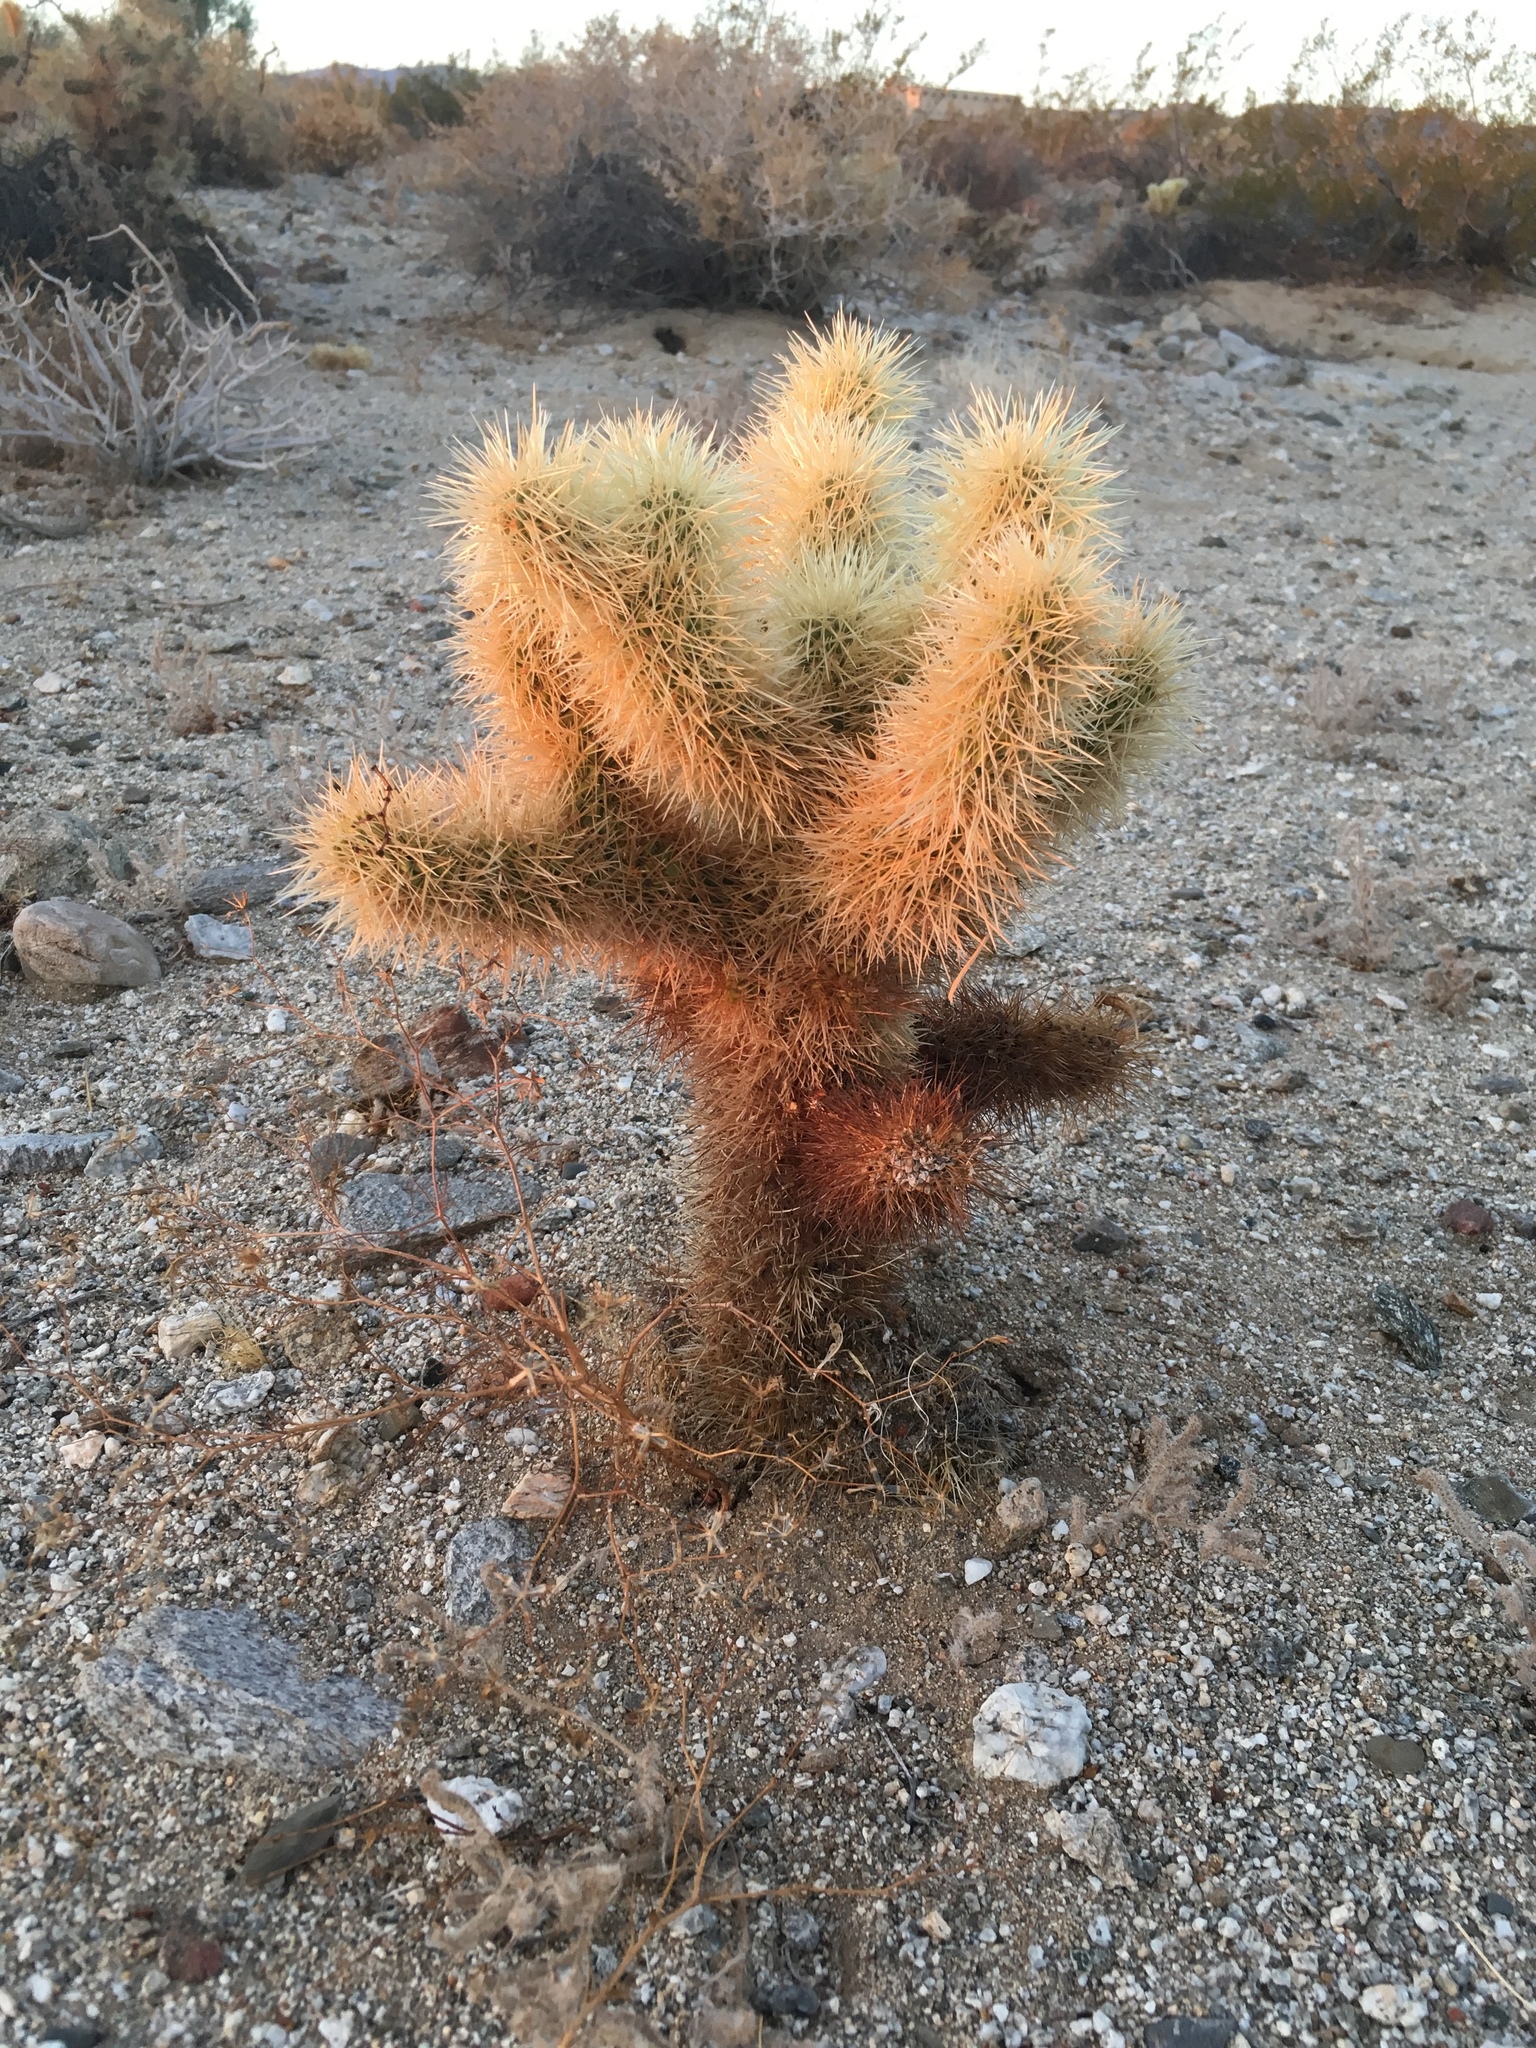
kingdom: Plantae
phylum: Tracheophyta
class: Magnoliopsida
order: Caryophyllales
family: Cactaceae
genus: Cylindropuntia
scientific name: Cylindropuntia fosbergii
